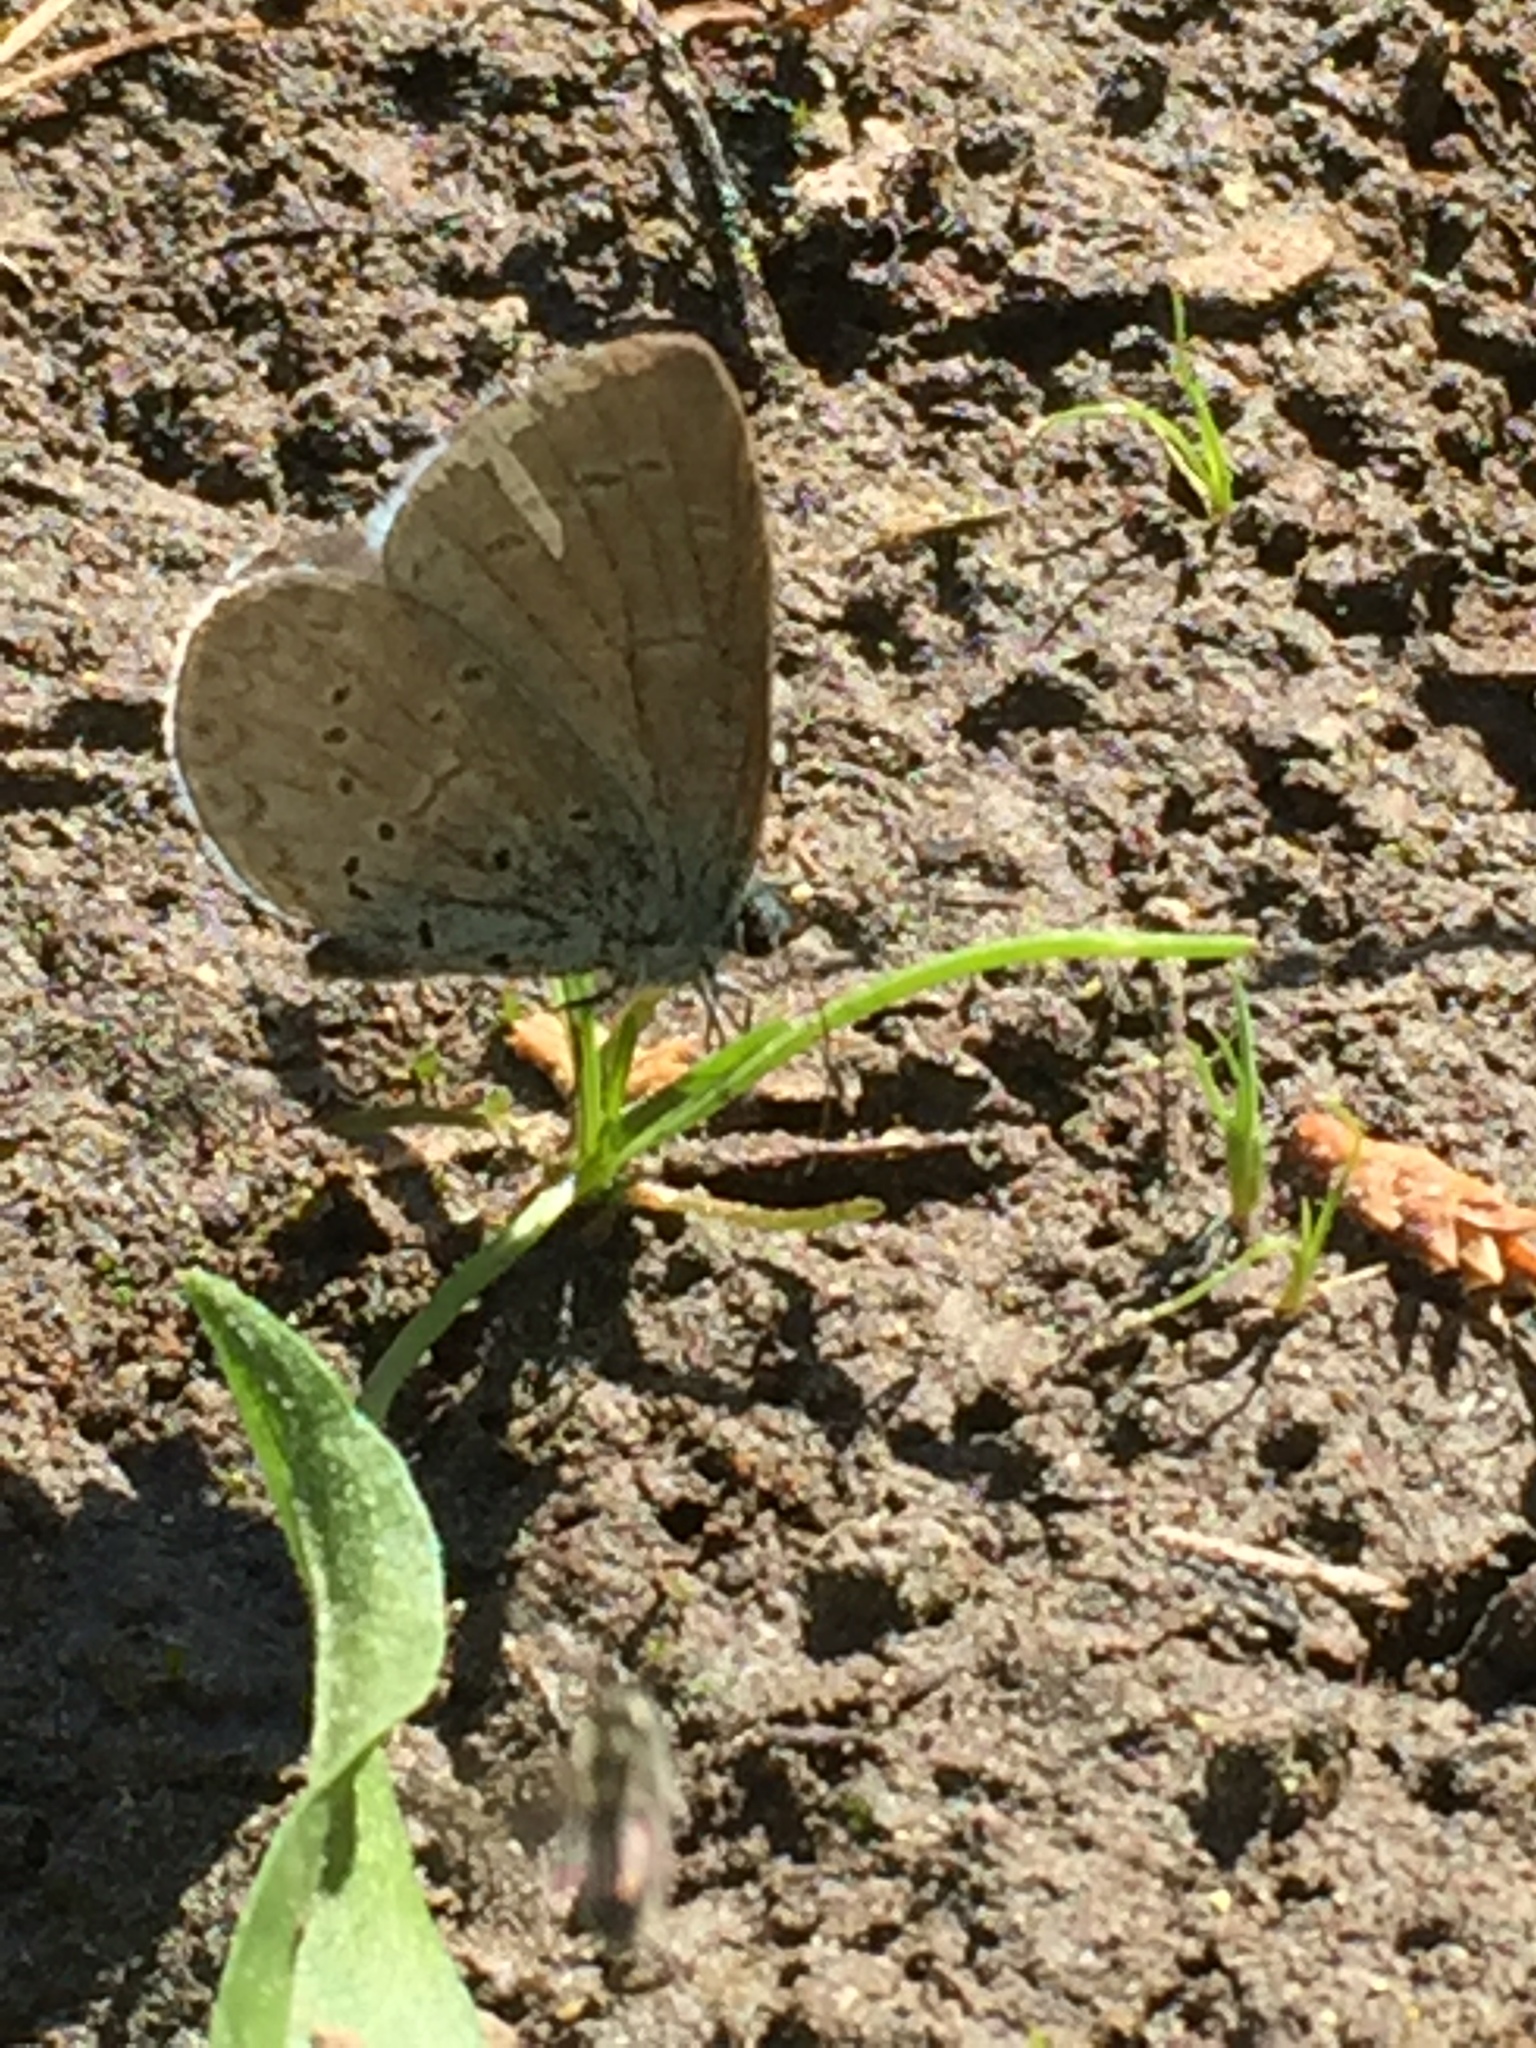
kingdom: Animalia
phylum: Arthropoda
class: Insecta
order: Lepidoptera
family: Lycaenidae
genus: Celastrina
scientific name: Celastrina ladon
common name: Spring azure
